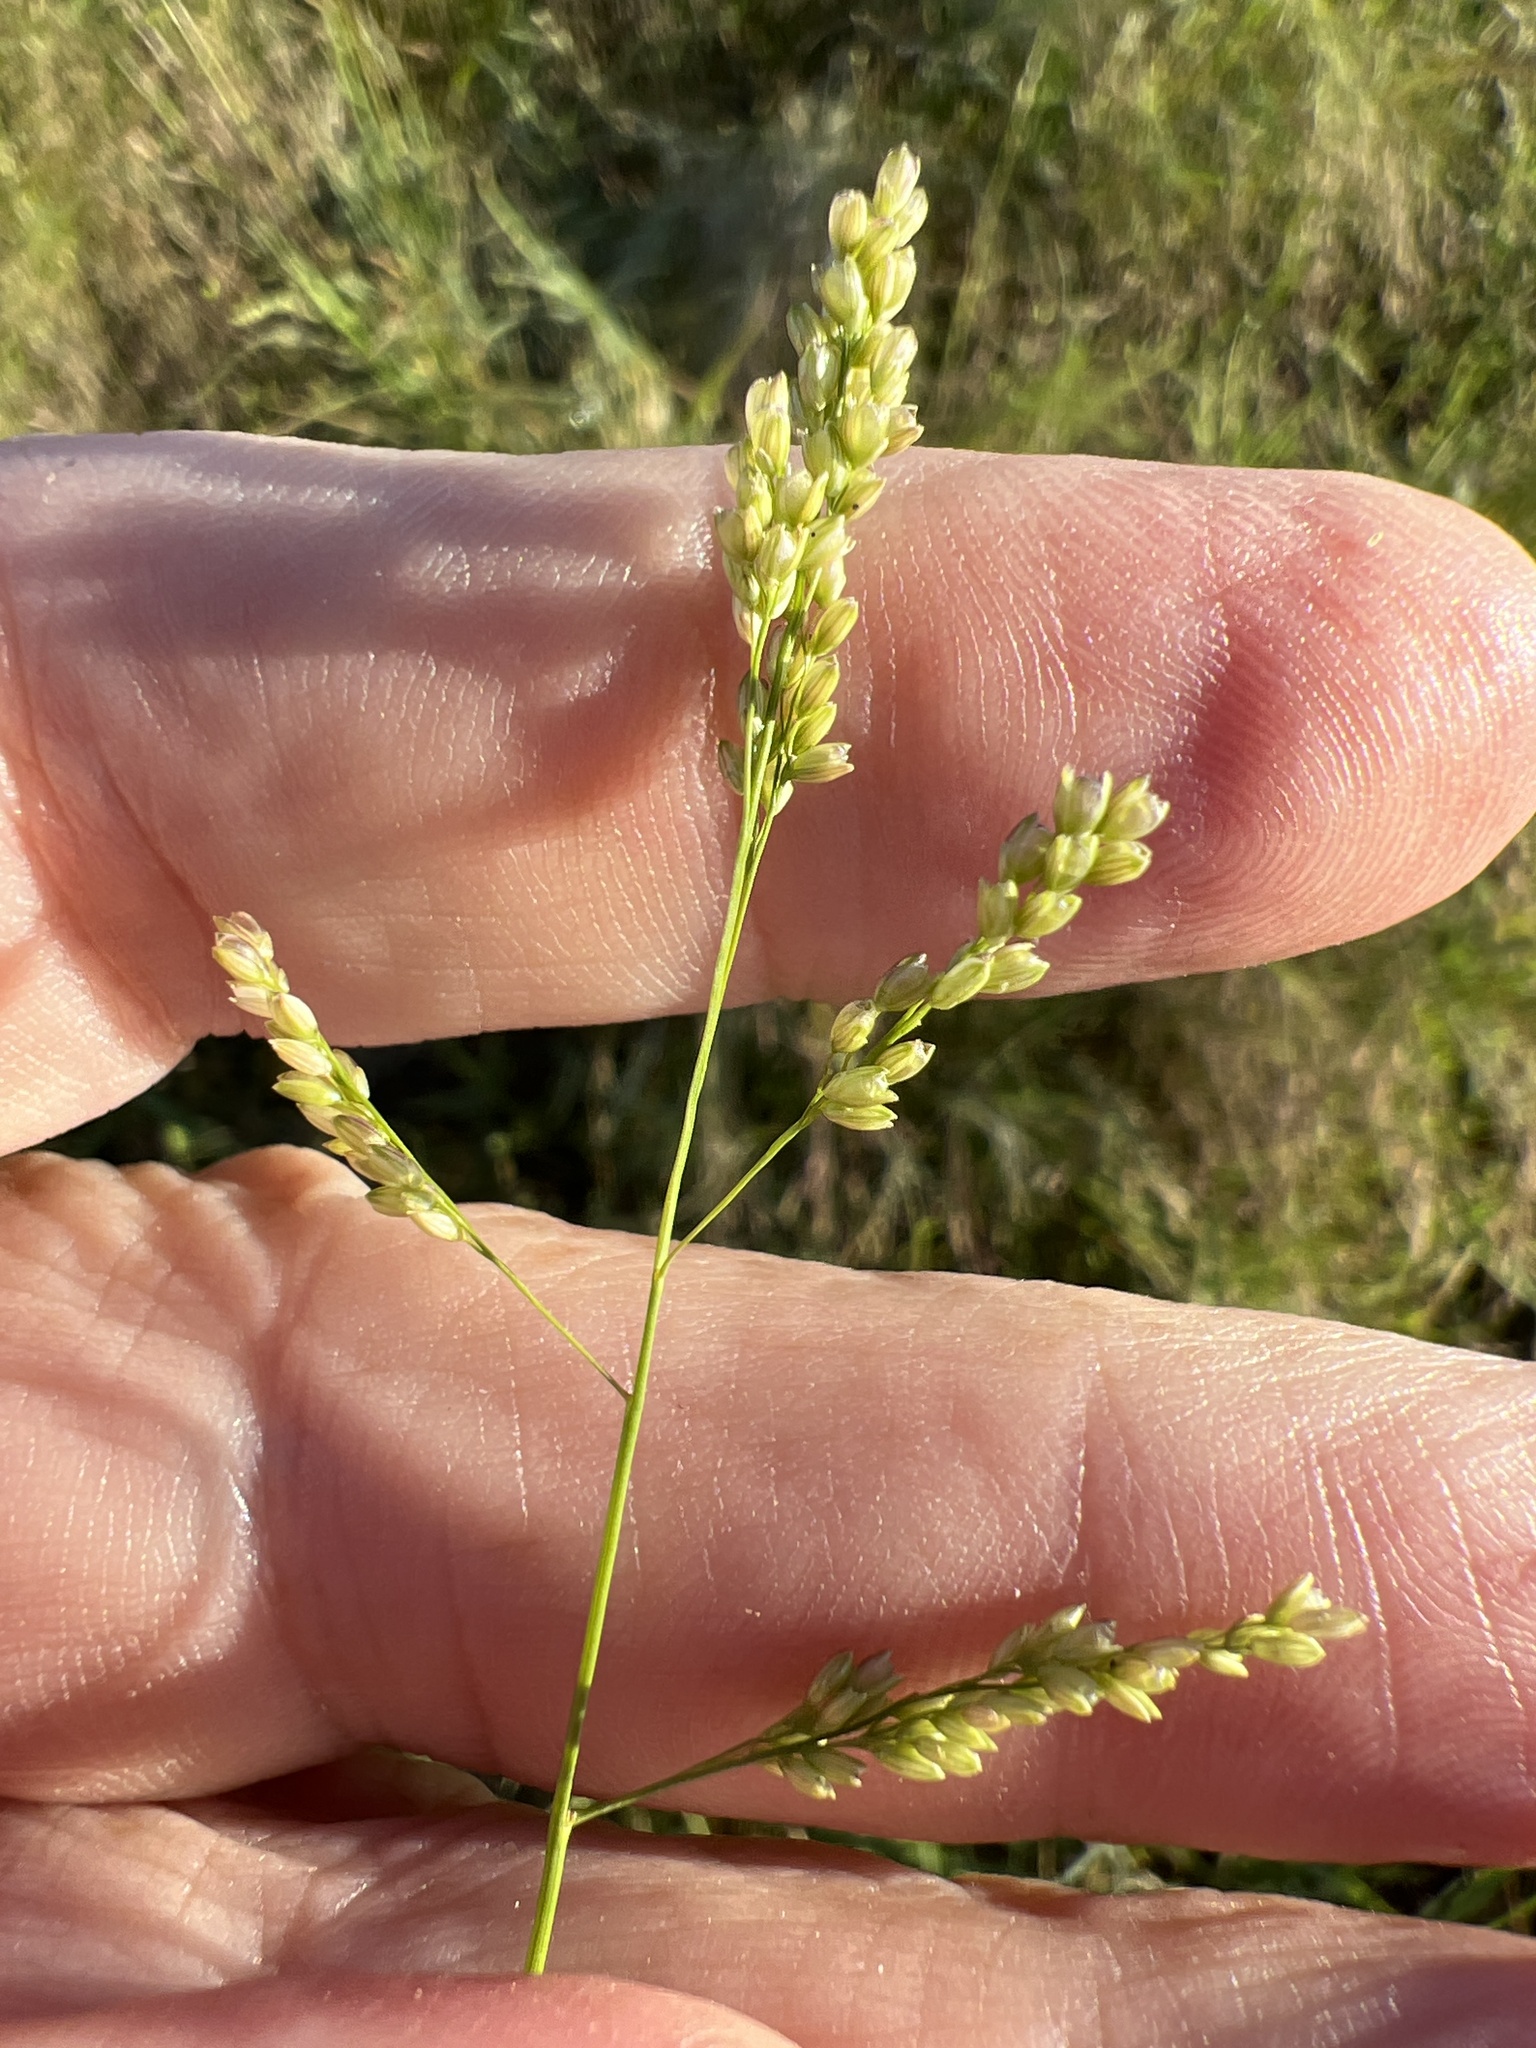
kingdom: Plantae
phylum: Tracheophyta
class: Liliopsida
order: Poales
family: Poaceae
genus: Steinchisma
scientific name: Steinchisma hians
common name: Gaping panic grass
